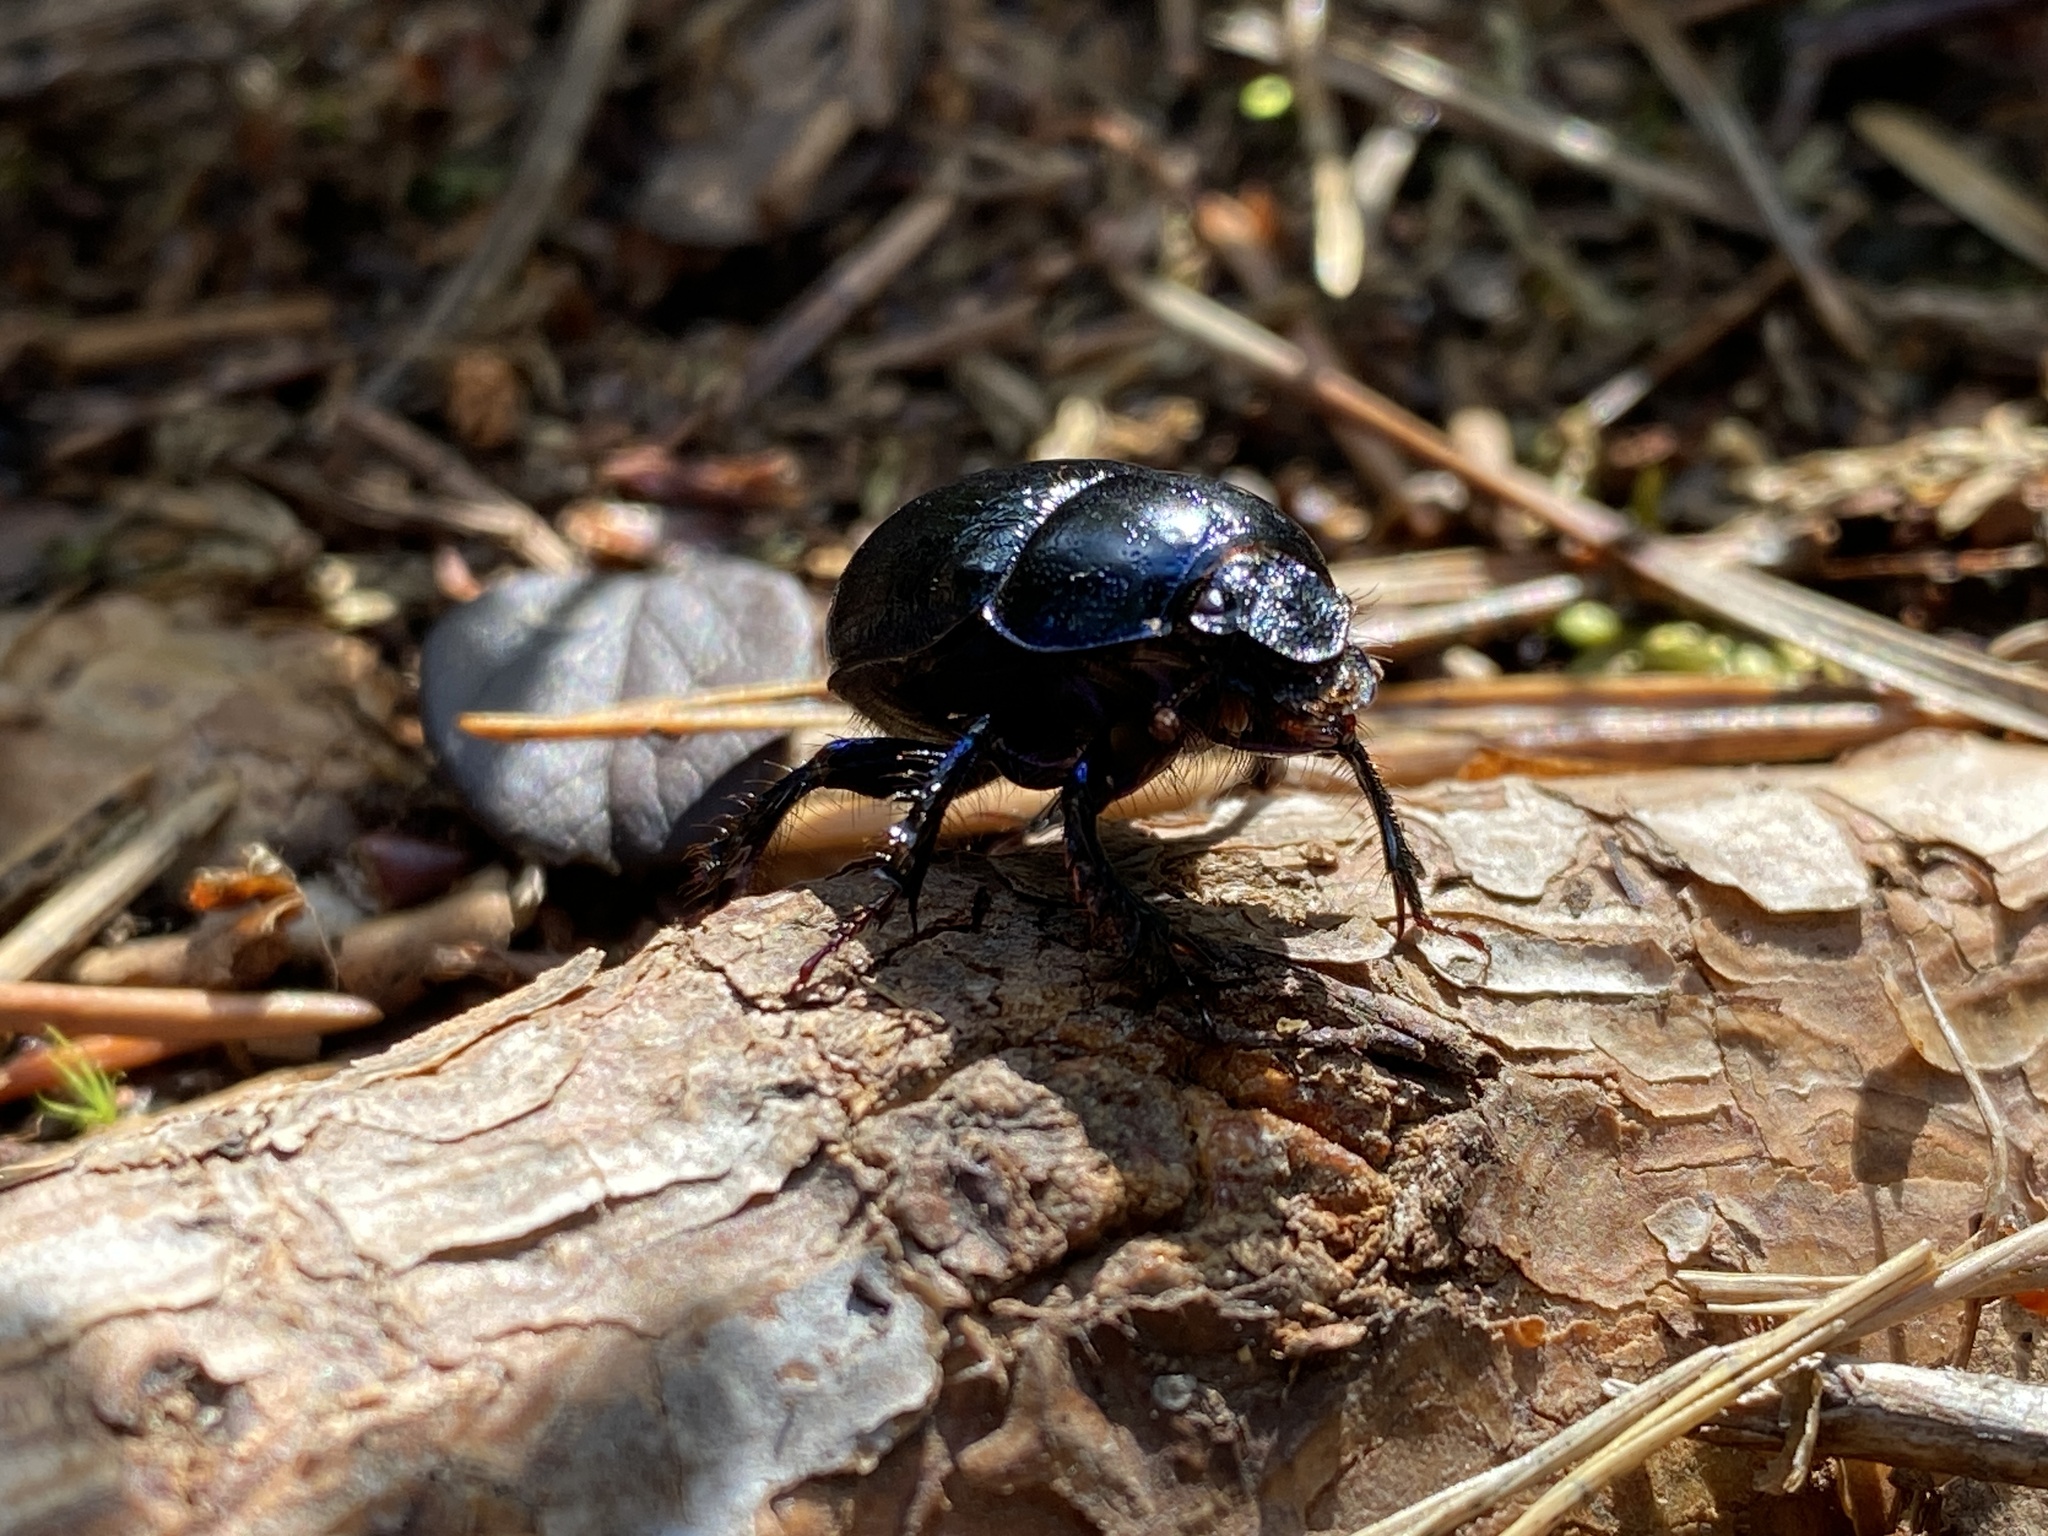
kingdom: Animalia
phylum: Arthropoda
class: Insecta
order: Coleoptera
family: Geotrupidae
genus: Anoplotrupes
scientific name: Anoplotrupes stercorosus
